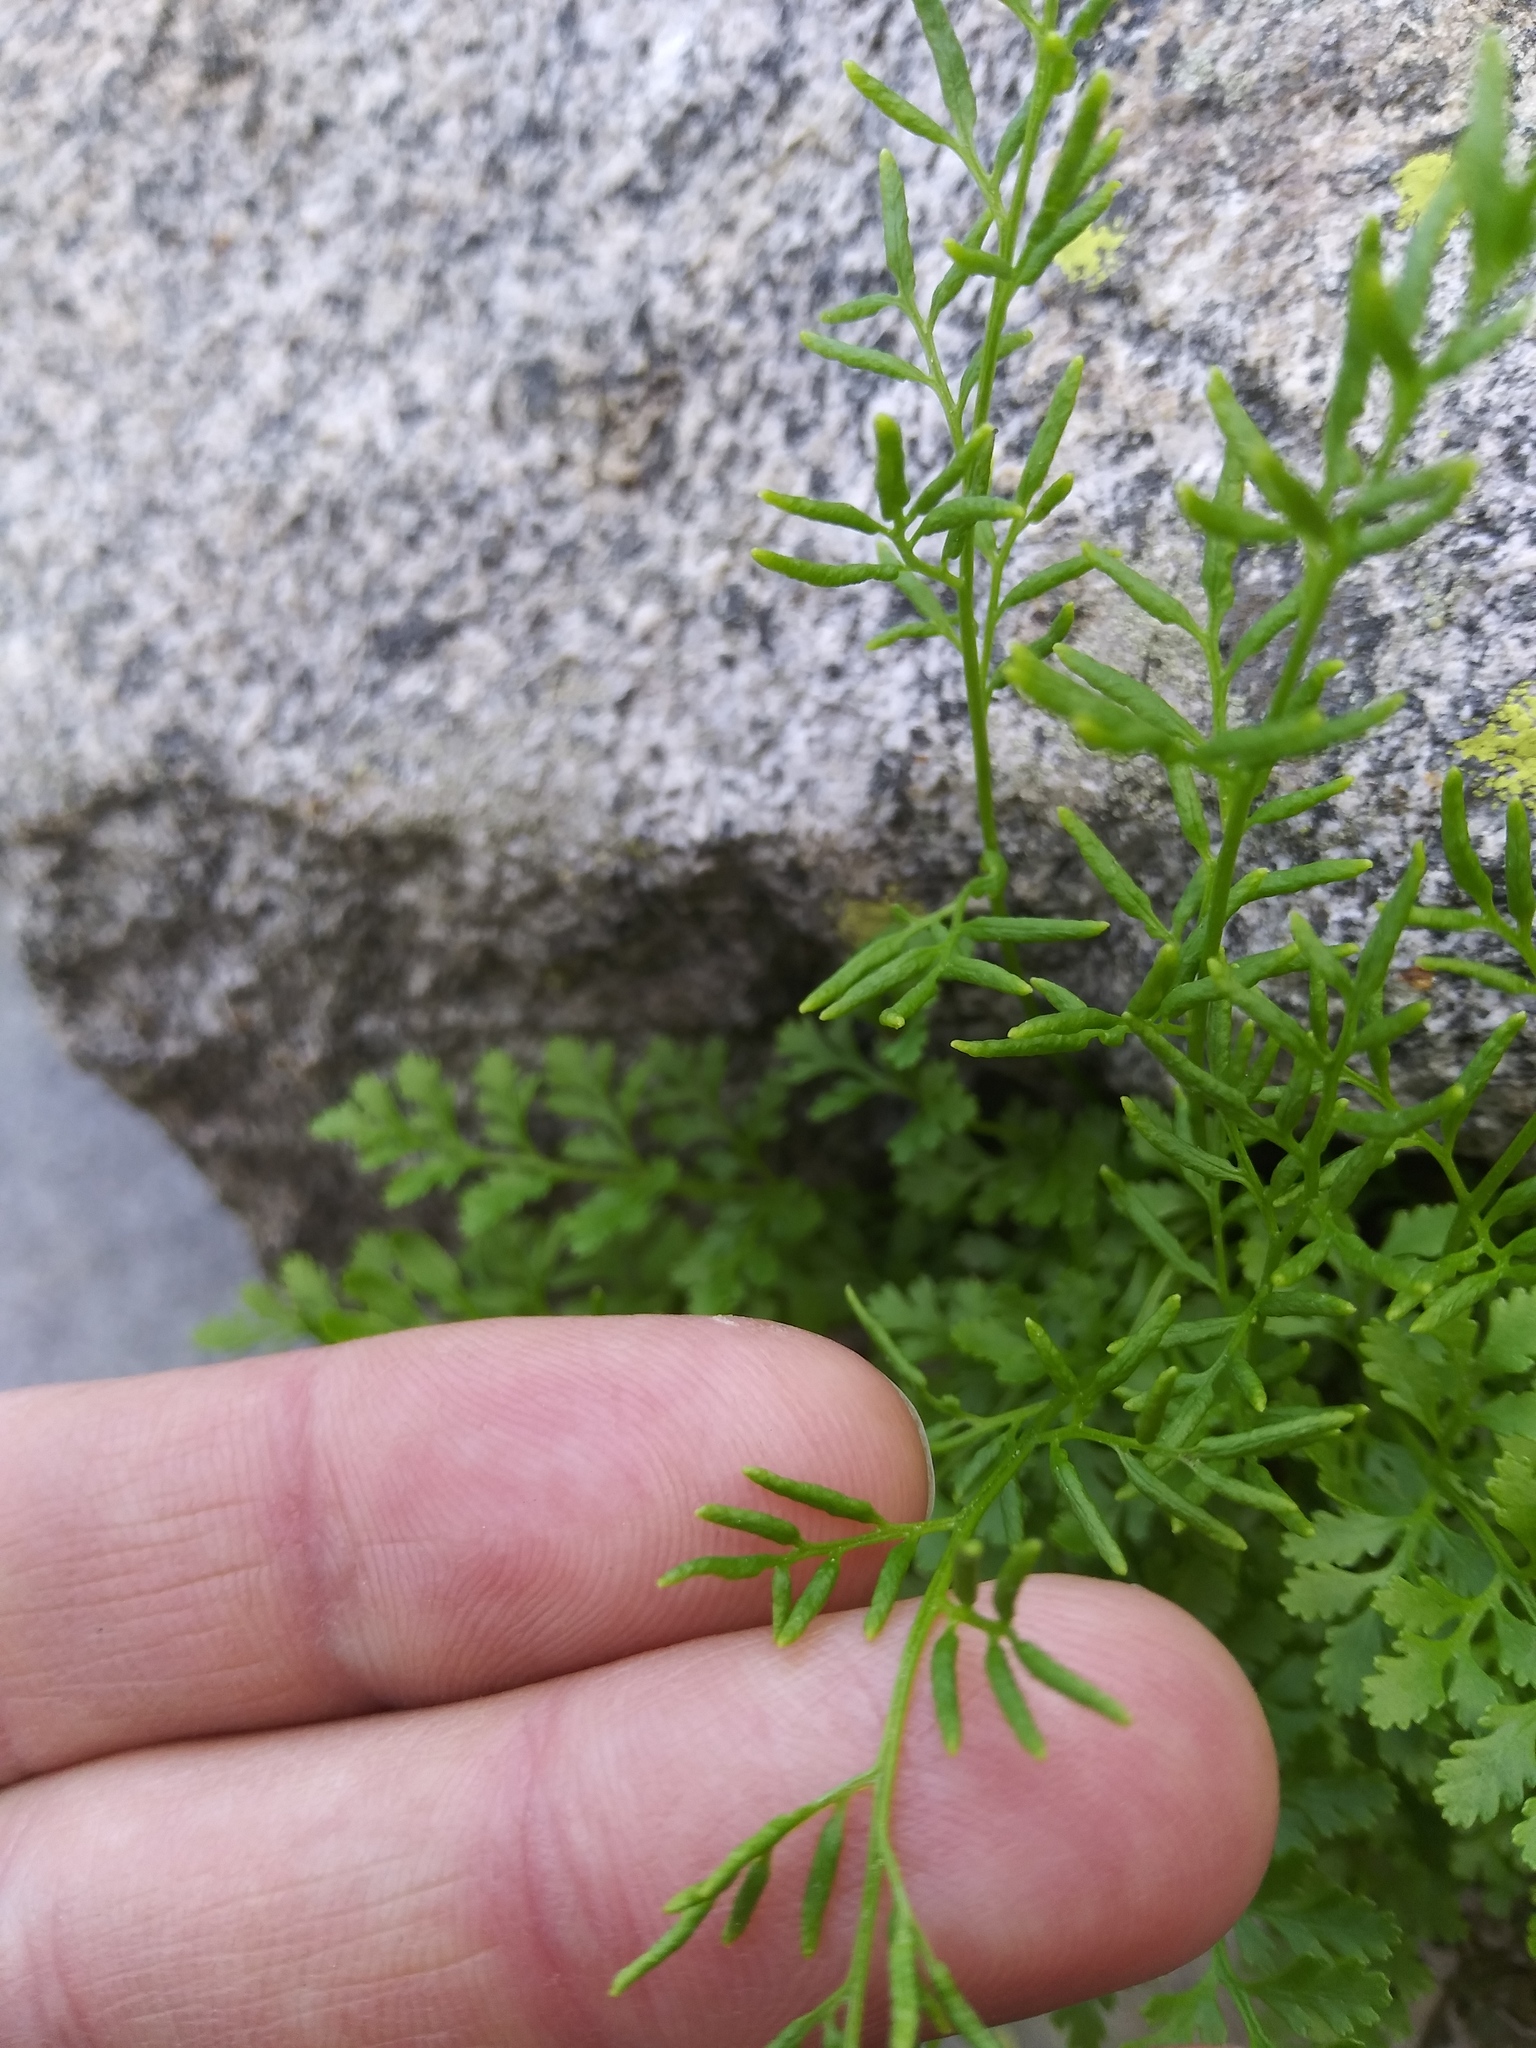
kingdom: Plantae
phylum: Tracheophyta
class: Polypodiopsida
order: Polypodiales
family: Pteridaceae
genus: Cryptogramma
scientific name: Cryptogramma acrostichoides
